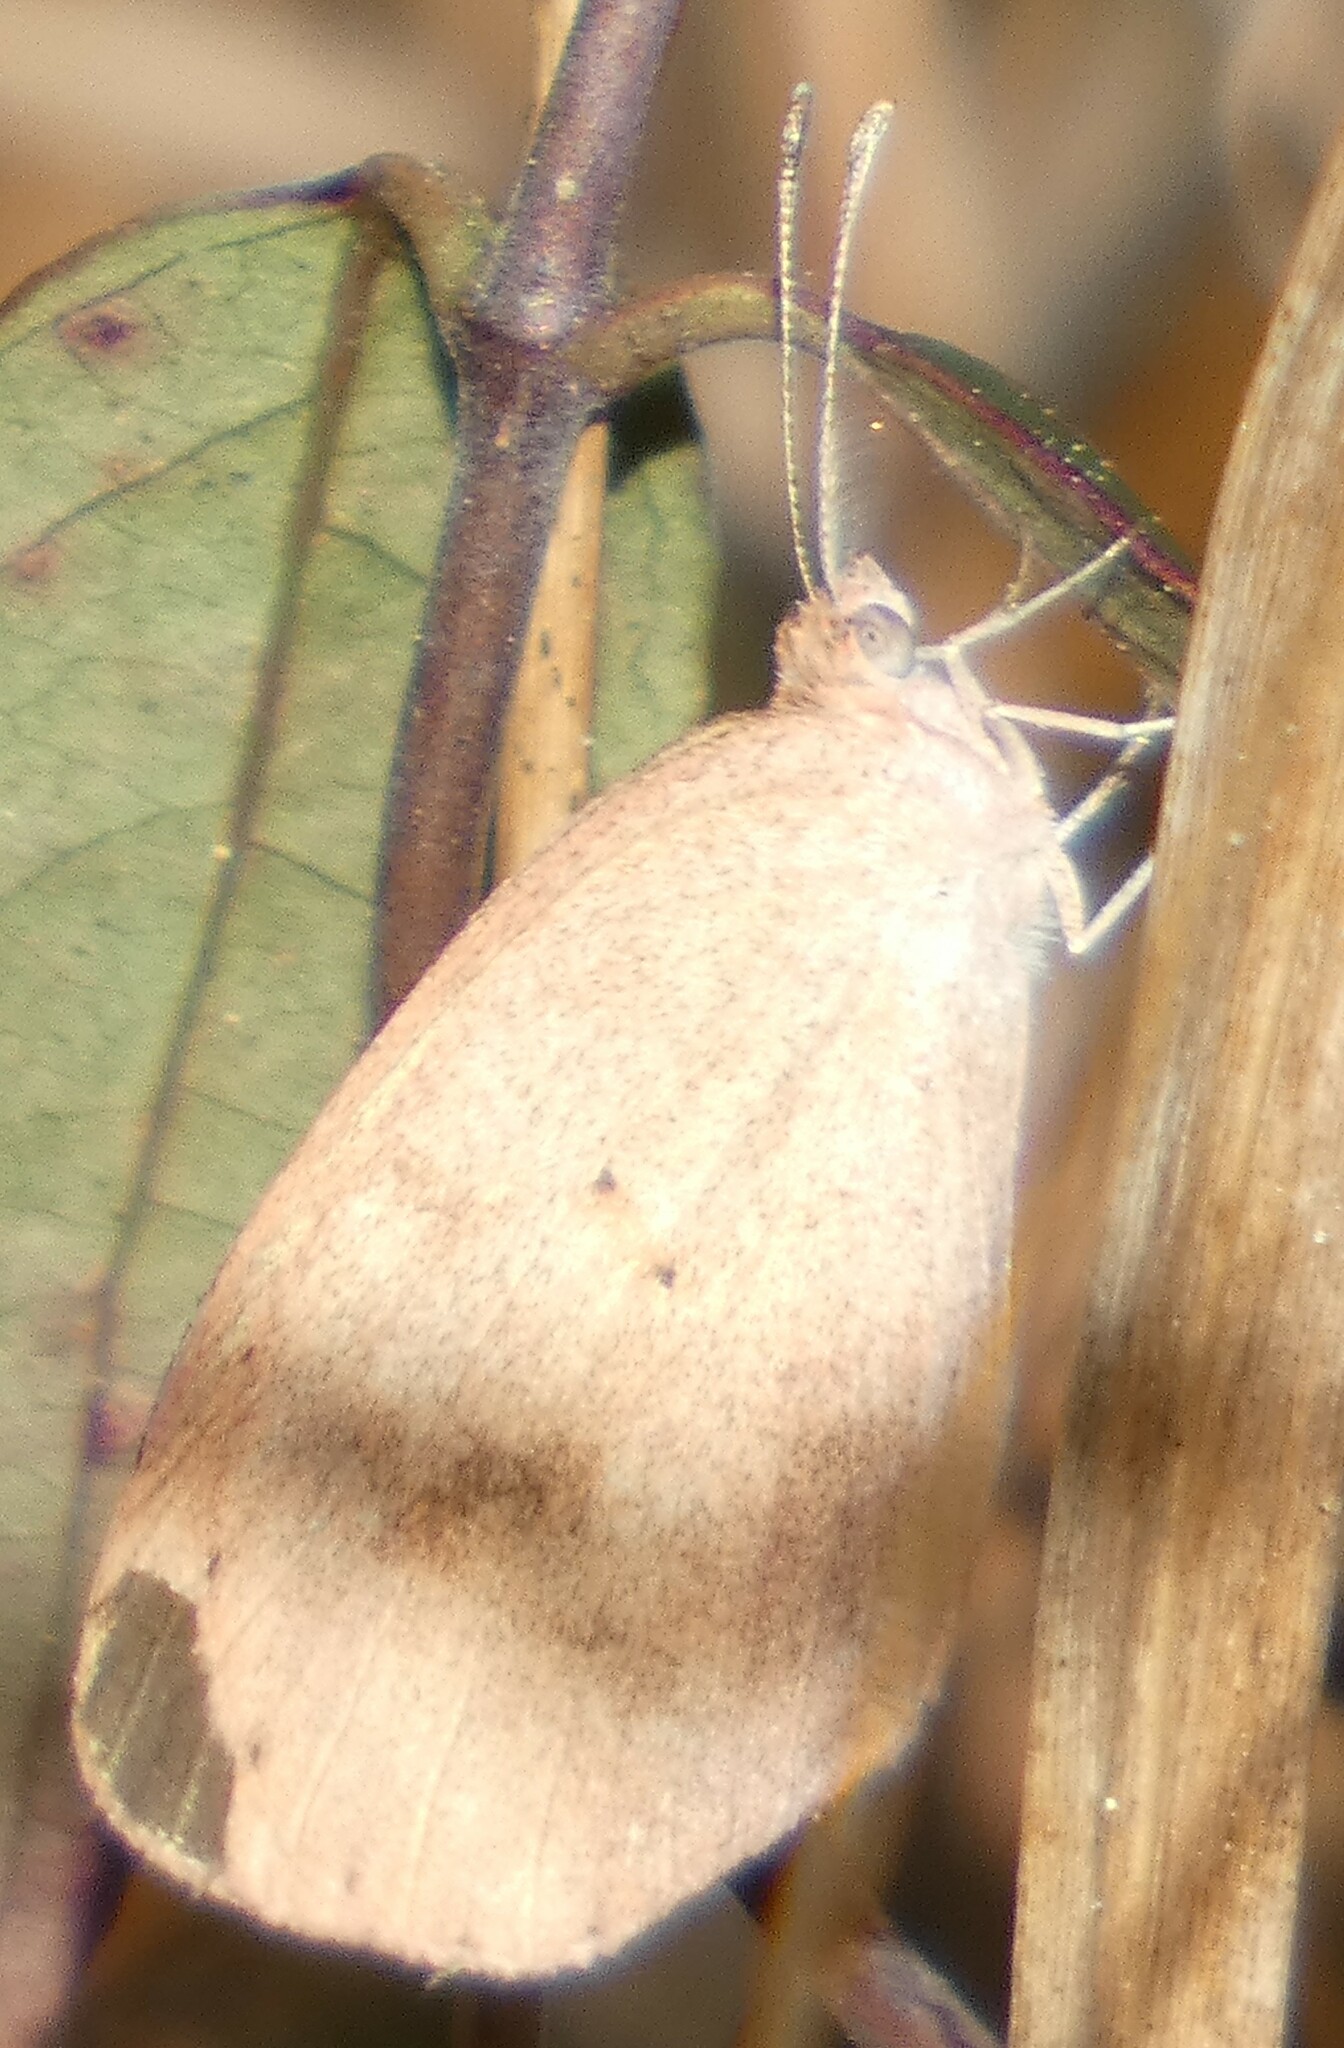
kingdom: Animalia
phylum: Arthropoda
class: Insecta
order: Lepidoptera
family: Pieridae
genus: Eurema
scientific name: Eurema daira
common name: Barred sulphur
